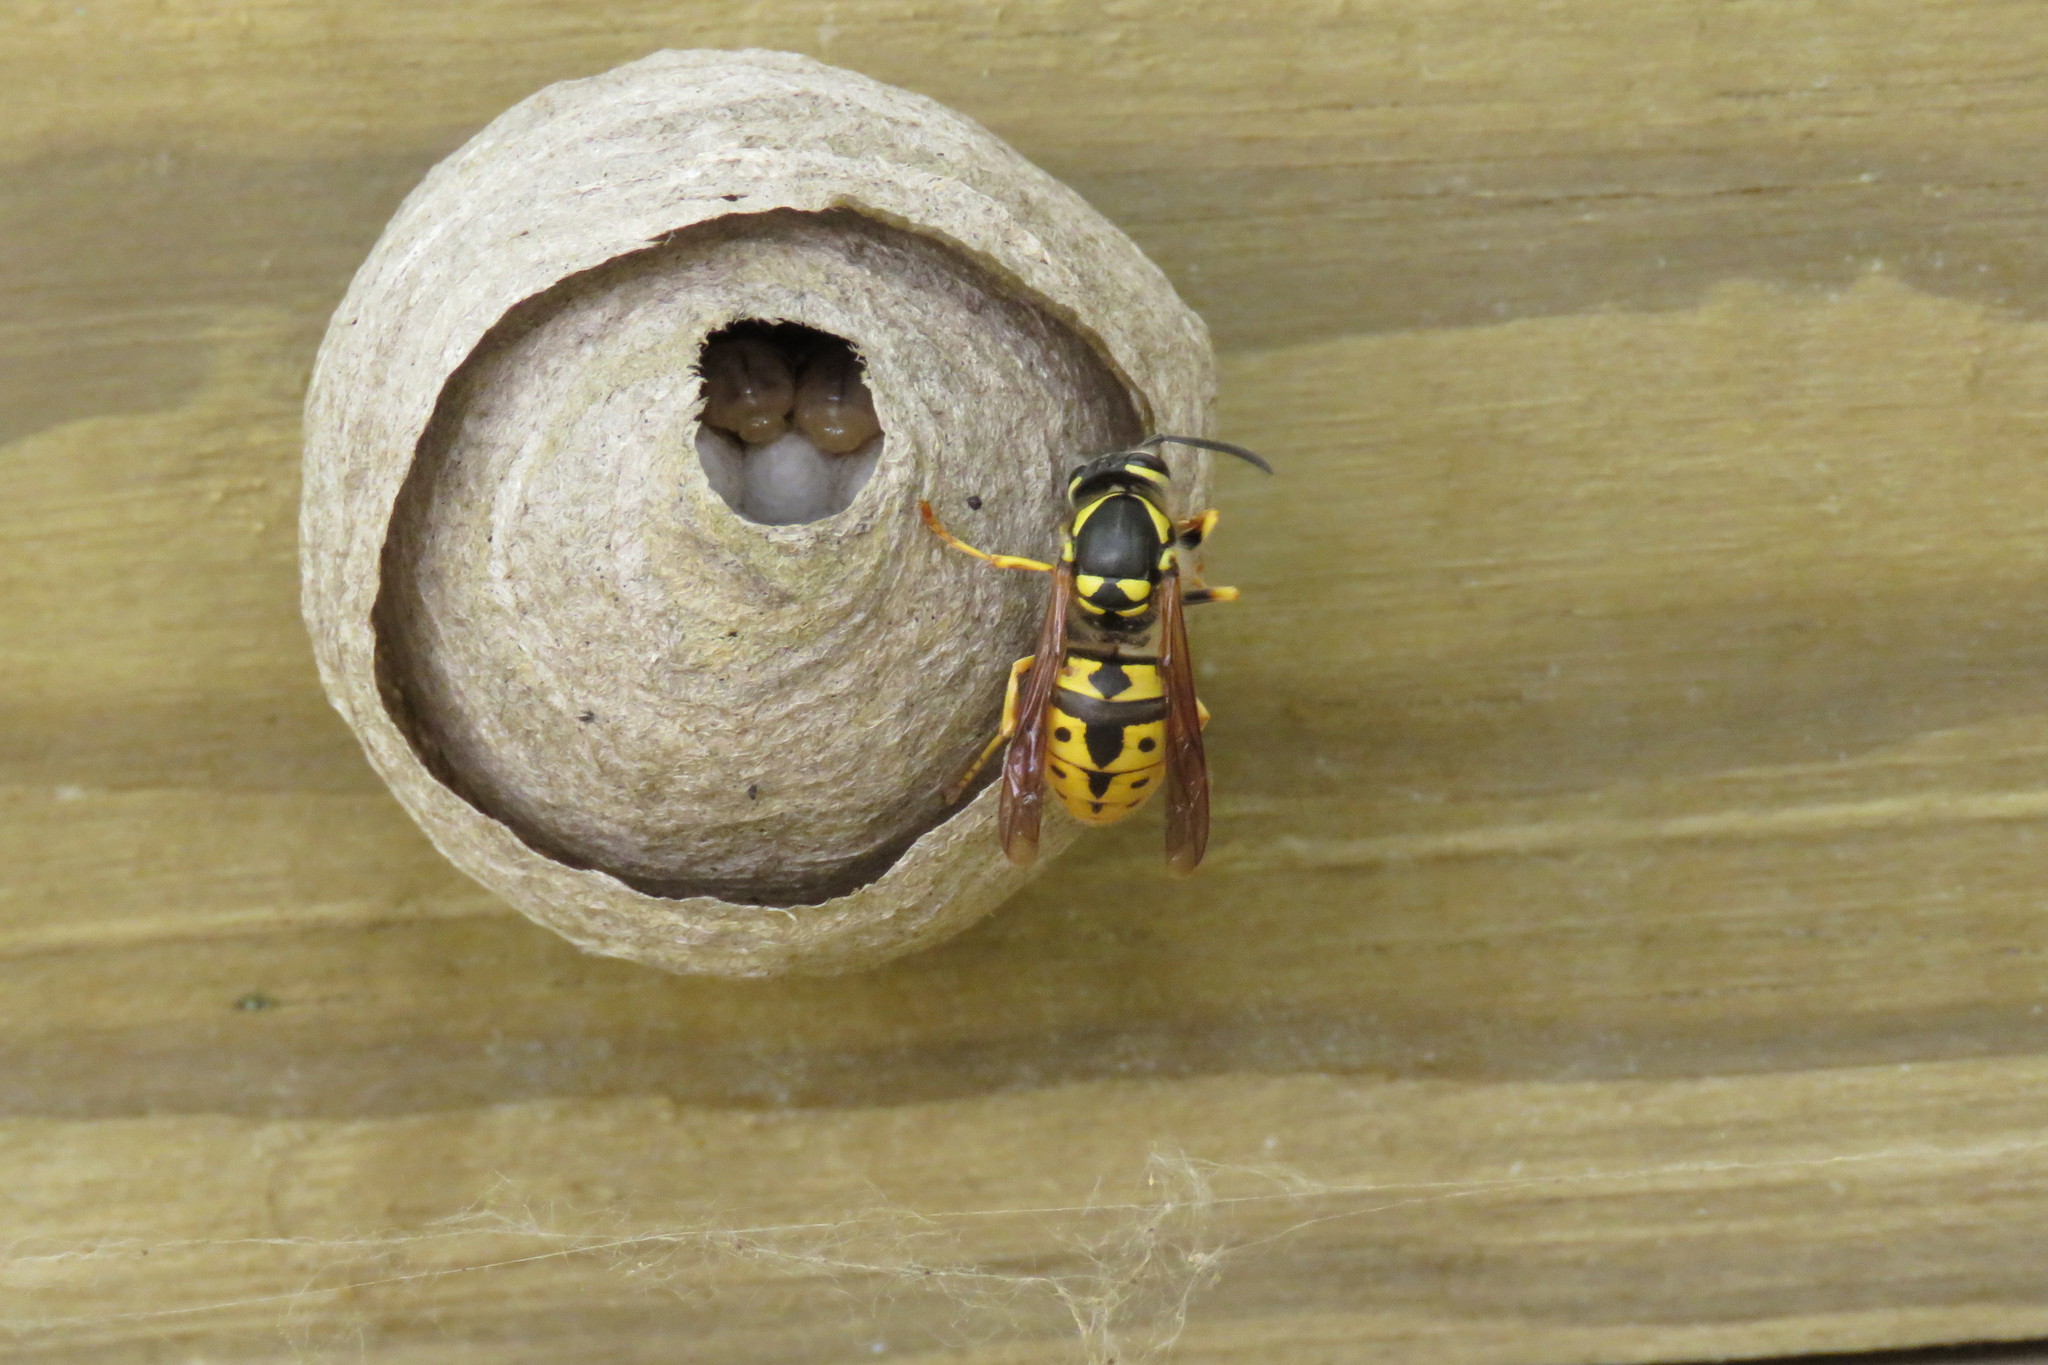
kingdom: Animalia
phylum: Arthropoda
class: Insecta
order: Hymenoptera
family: Vespidae
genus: Vespula
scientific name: Vespula germanica
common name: German wasp
